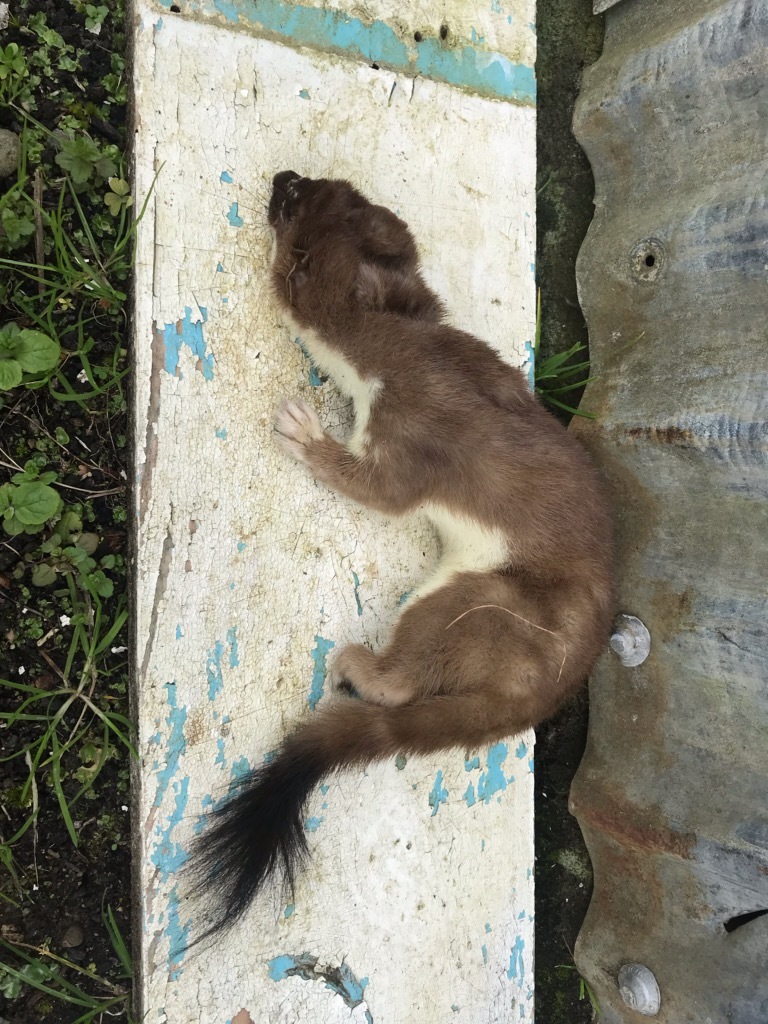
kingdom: Animalia
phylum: Chordata
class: Mammalia
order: Carnivora
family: Mustelidae
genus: Mustela
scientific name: Mustela erminea
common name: Stoat
